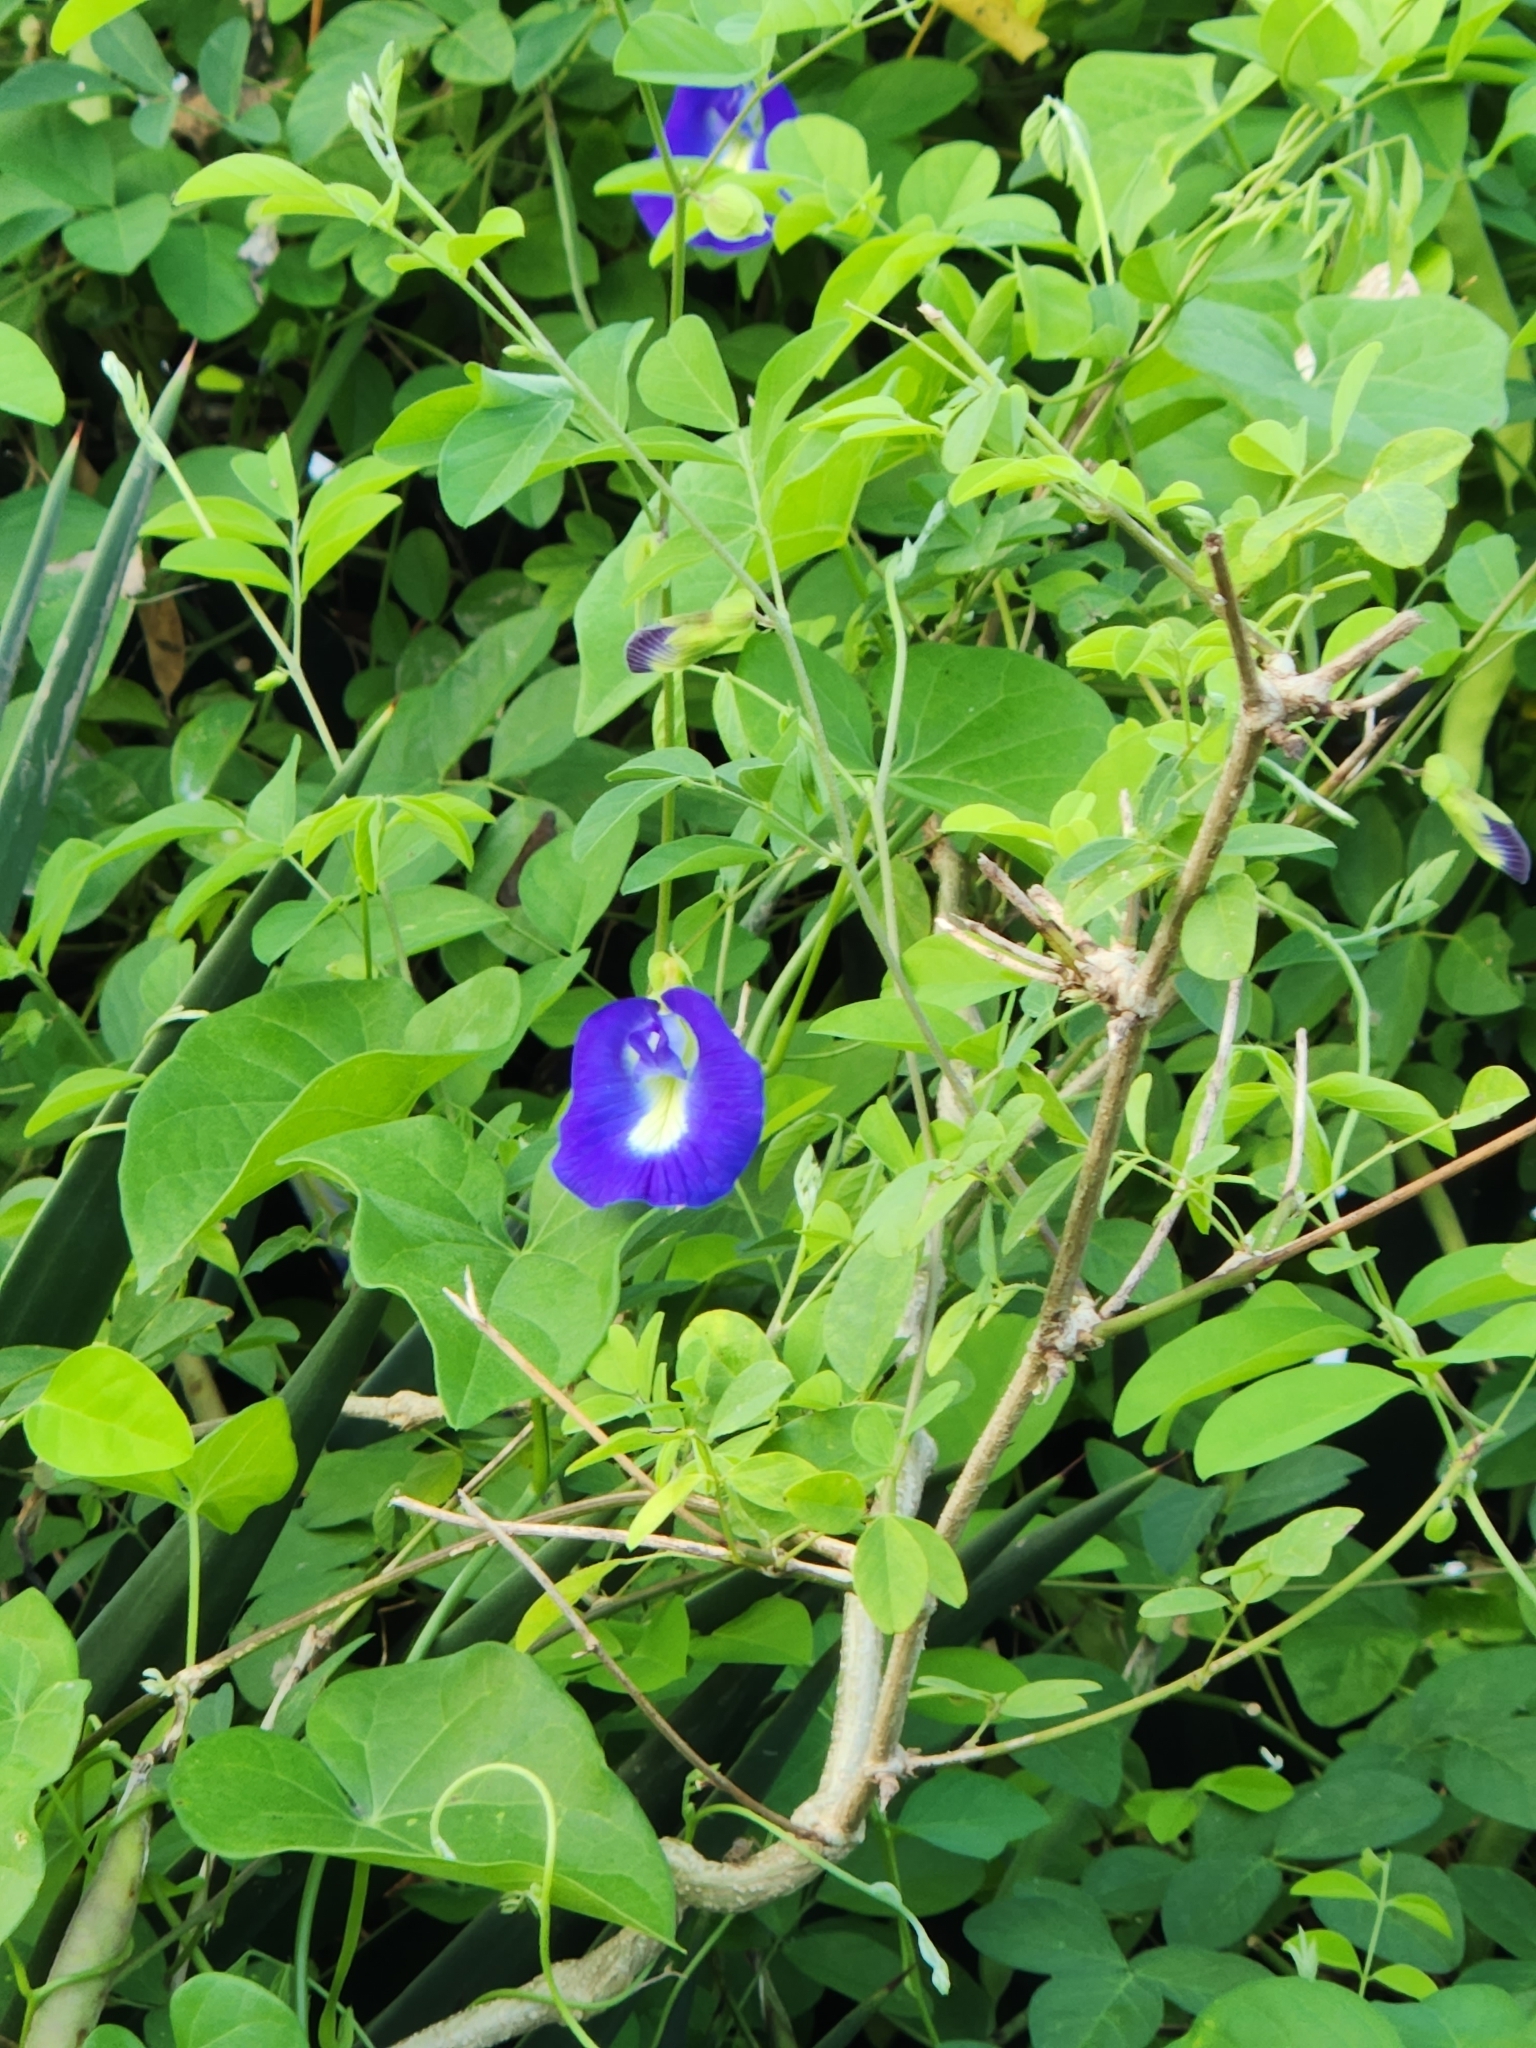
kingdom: Plantae
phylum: Tracheophyta
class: Magnoliopsida
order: Fabales
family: Fabaceae
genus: Clitoria
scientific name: Clitoria ternatea
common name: Asian pigeonwings
